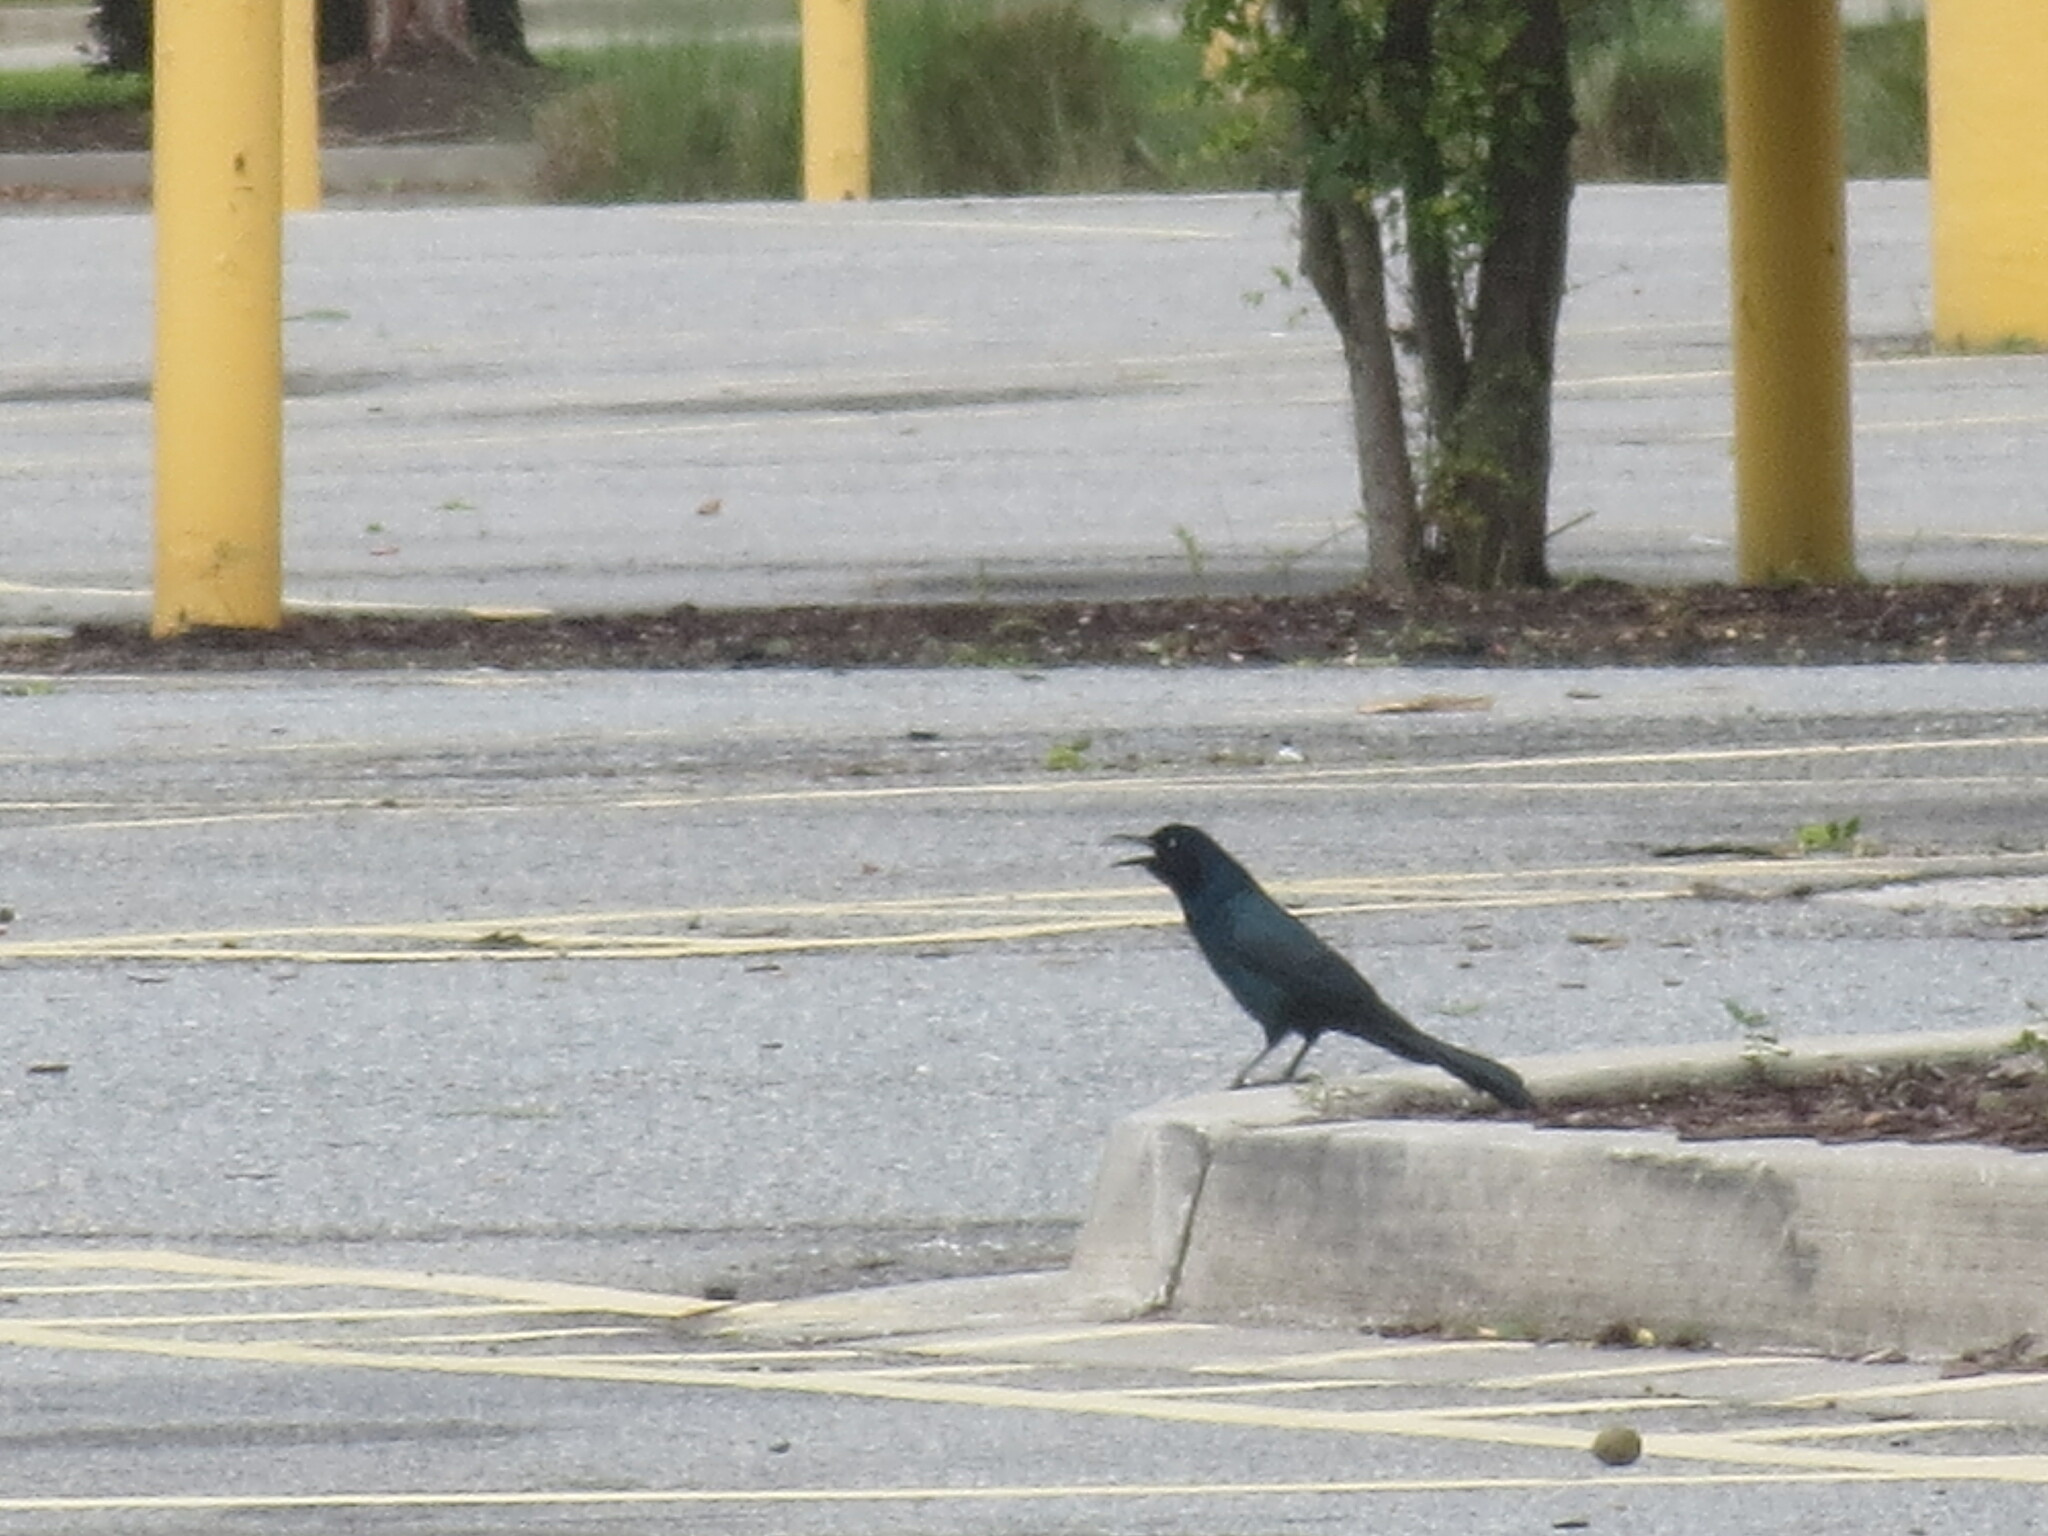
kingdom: Animalia
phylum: Chordata
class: Aves
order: Passeriformes
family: Icteridae
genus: Quiscalus
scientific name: Quiscalus major
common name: Boat-tailed grackle
